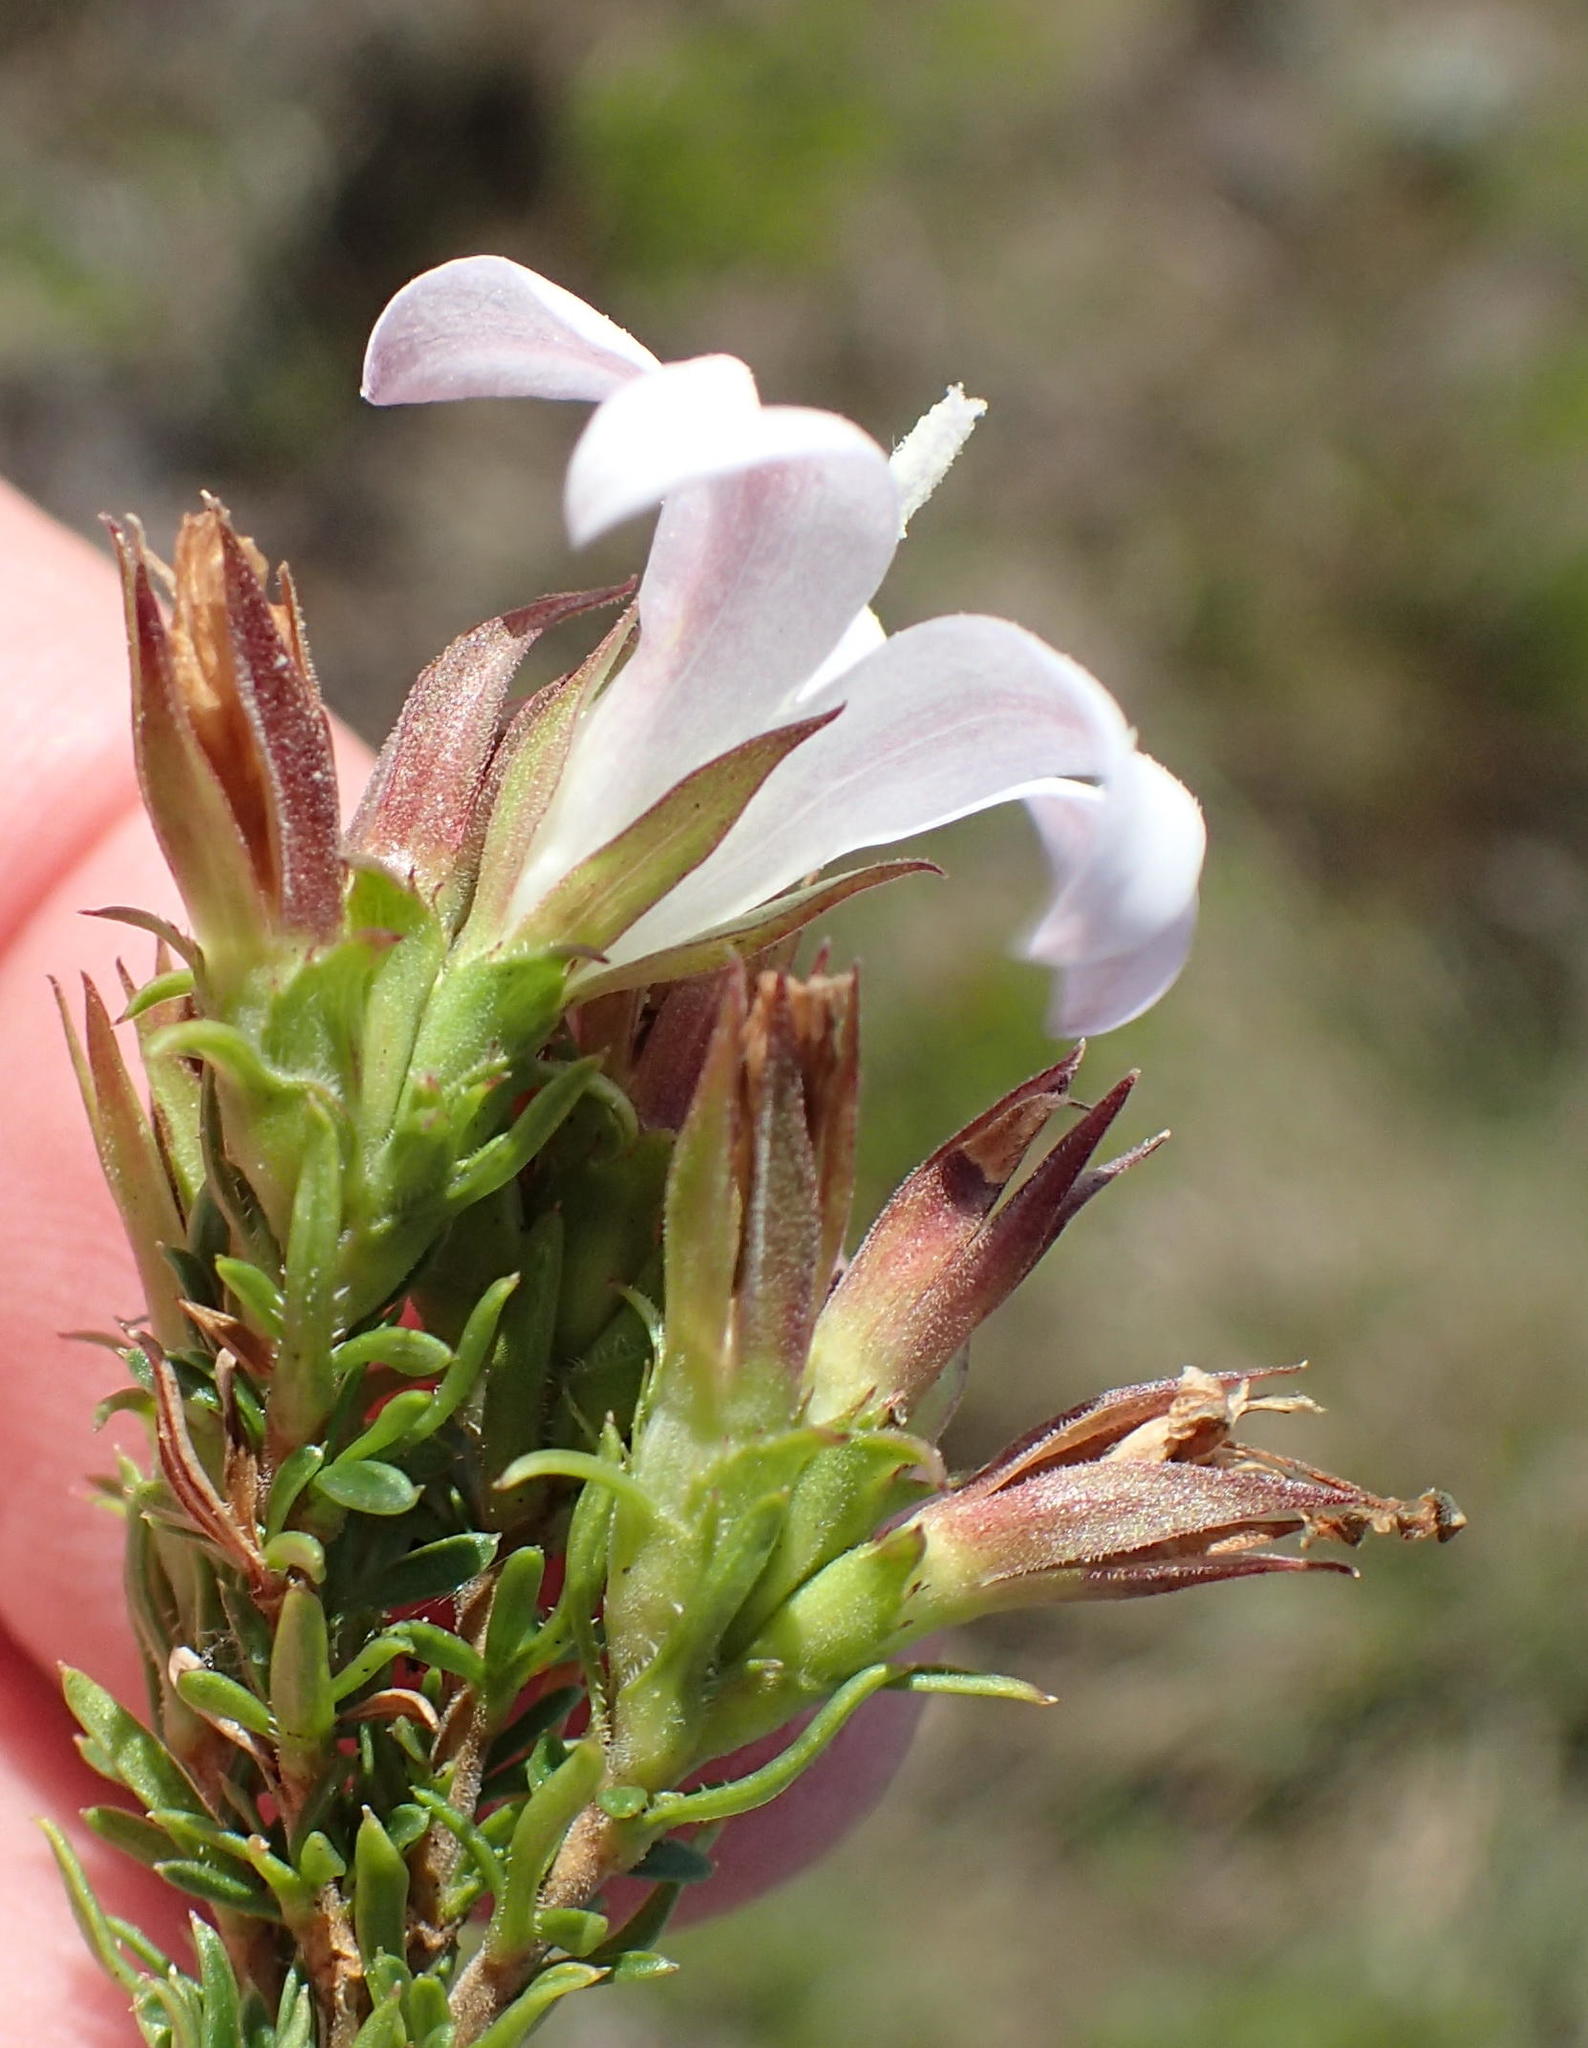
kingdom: Plantae
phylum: Tracheophyta
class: Magnoliopsida
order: Asterales
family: Campanulaceae
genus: Roella
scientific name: Roella spicata
